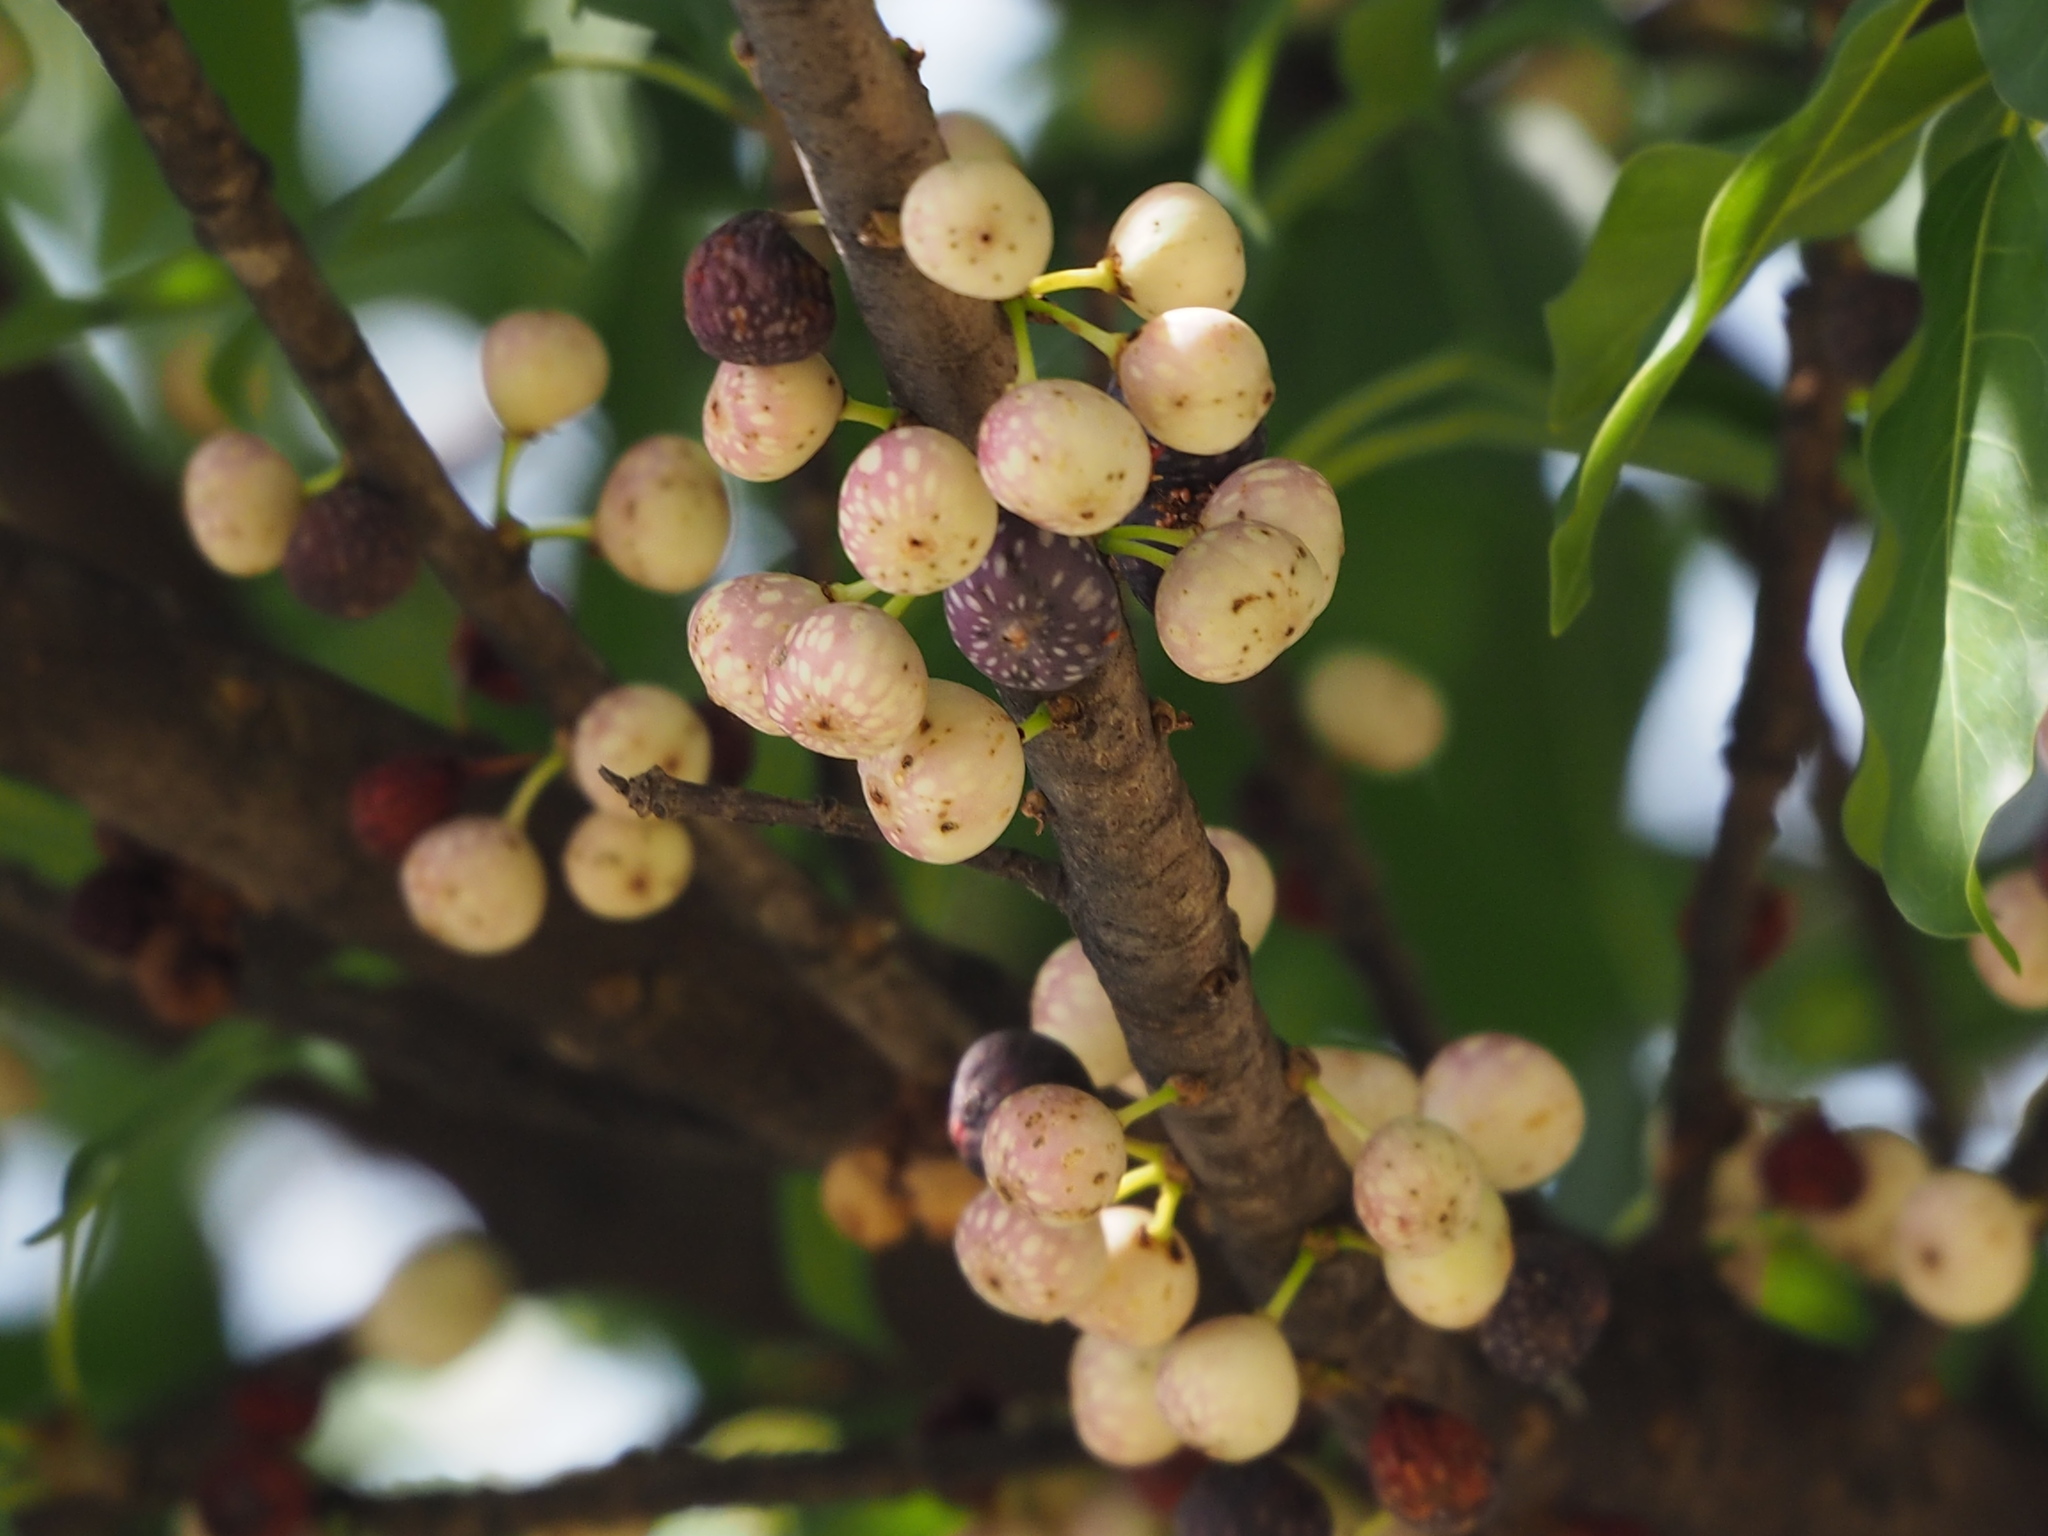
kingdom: Plantae
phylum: Tracheophyta
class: Magnoliopsida
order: Rosales
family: Moraceae
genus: Ficus
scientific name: Ficus subpisocarpa
